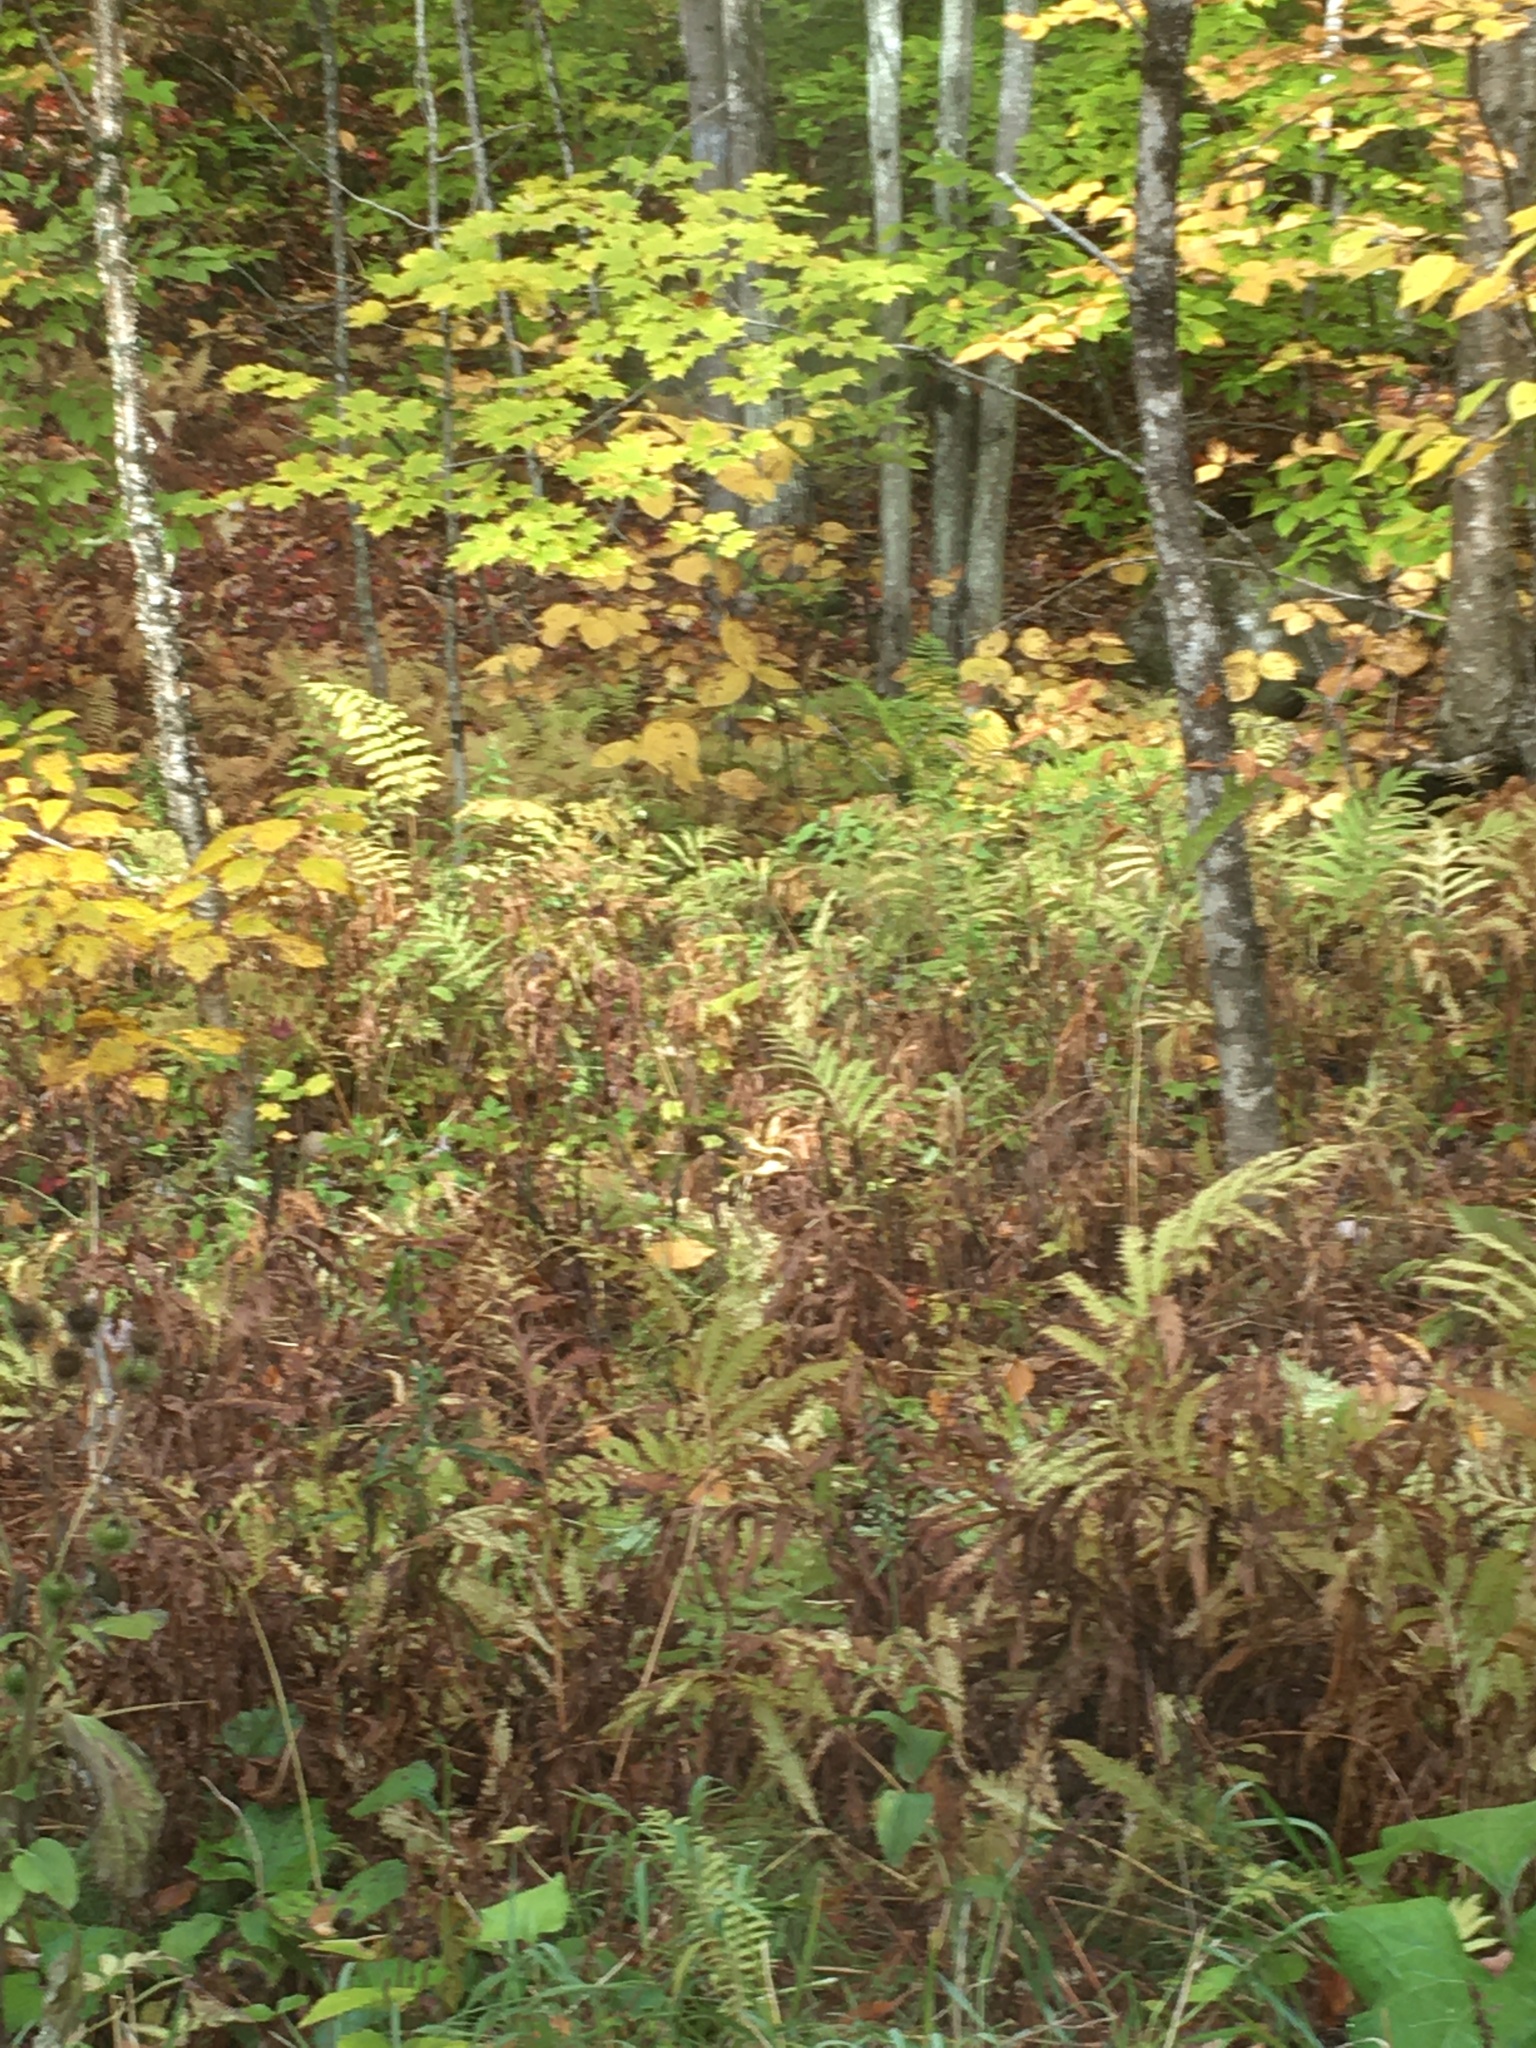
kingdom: Plantae
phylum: Tracheophyta
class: Polypodiopsida
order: Polypodiales
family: Onocleaceae
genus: Onoclea
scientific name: Onoclea sensibilis
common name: Sensitive fern
